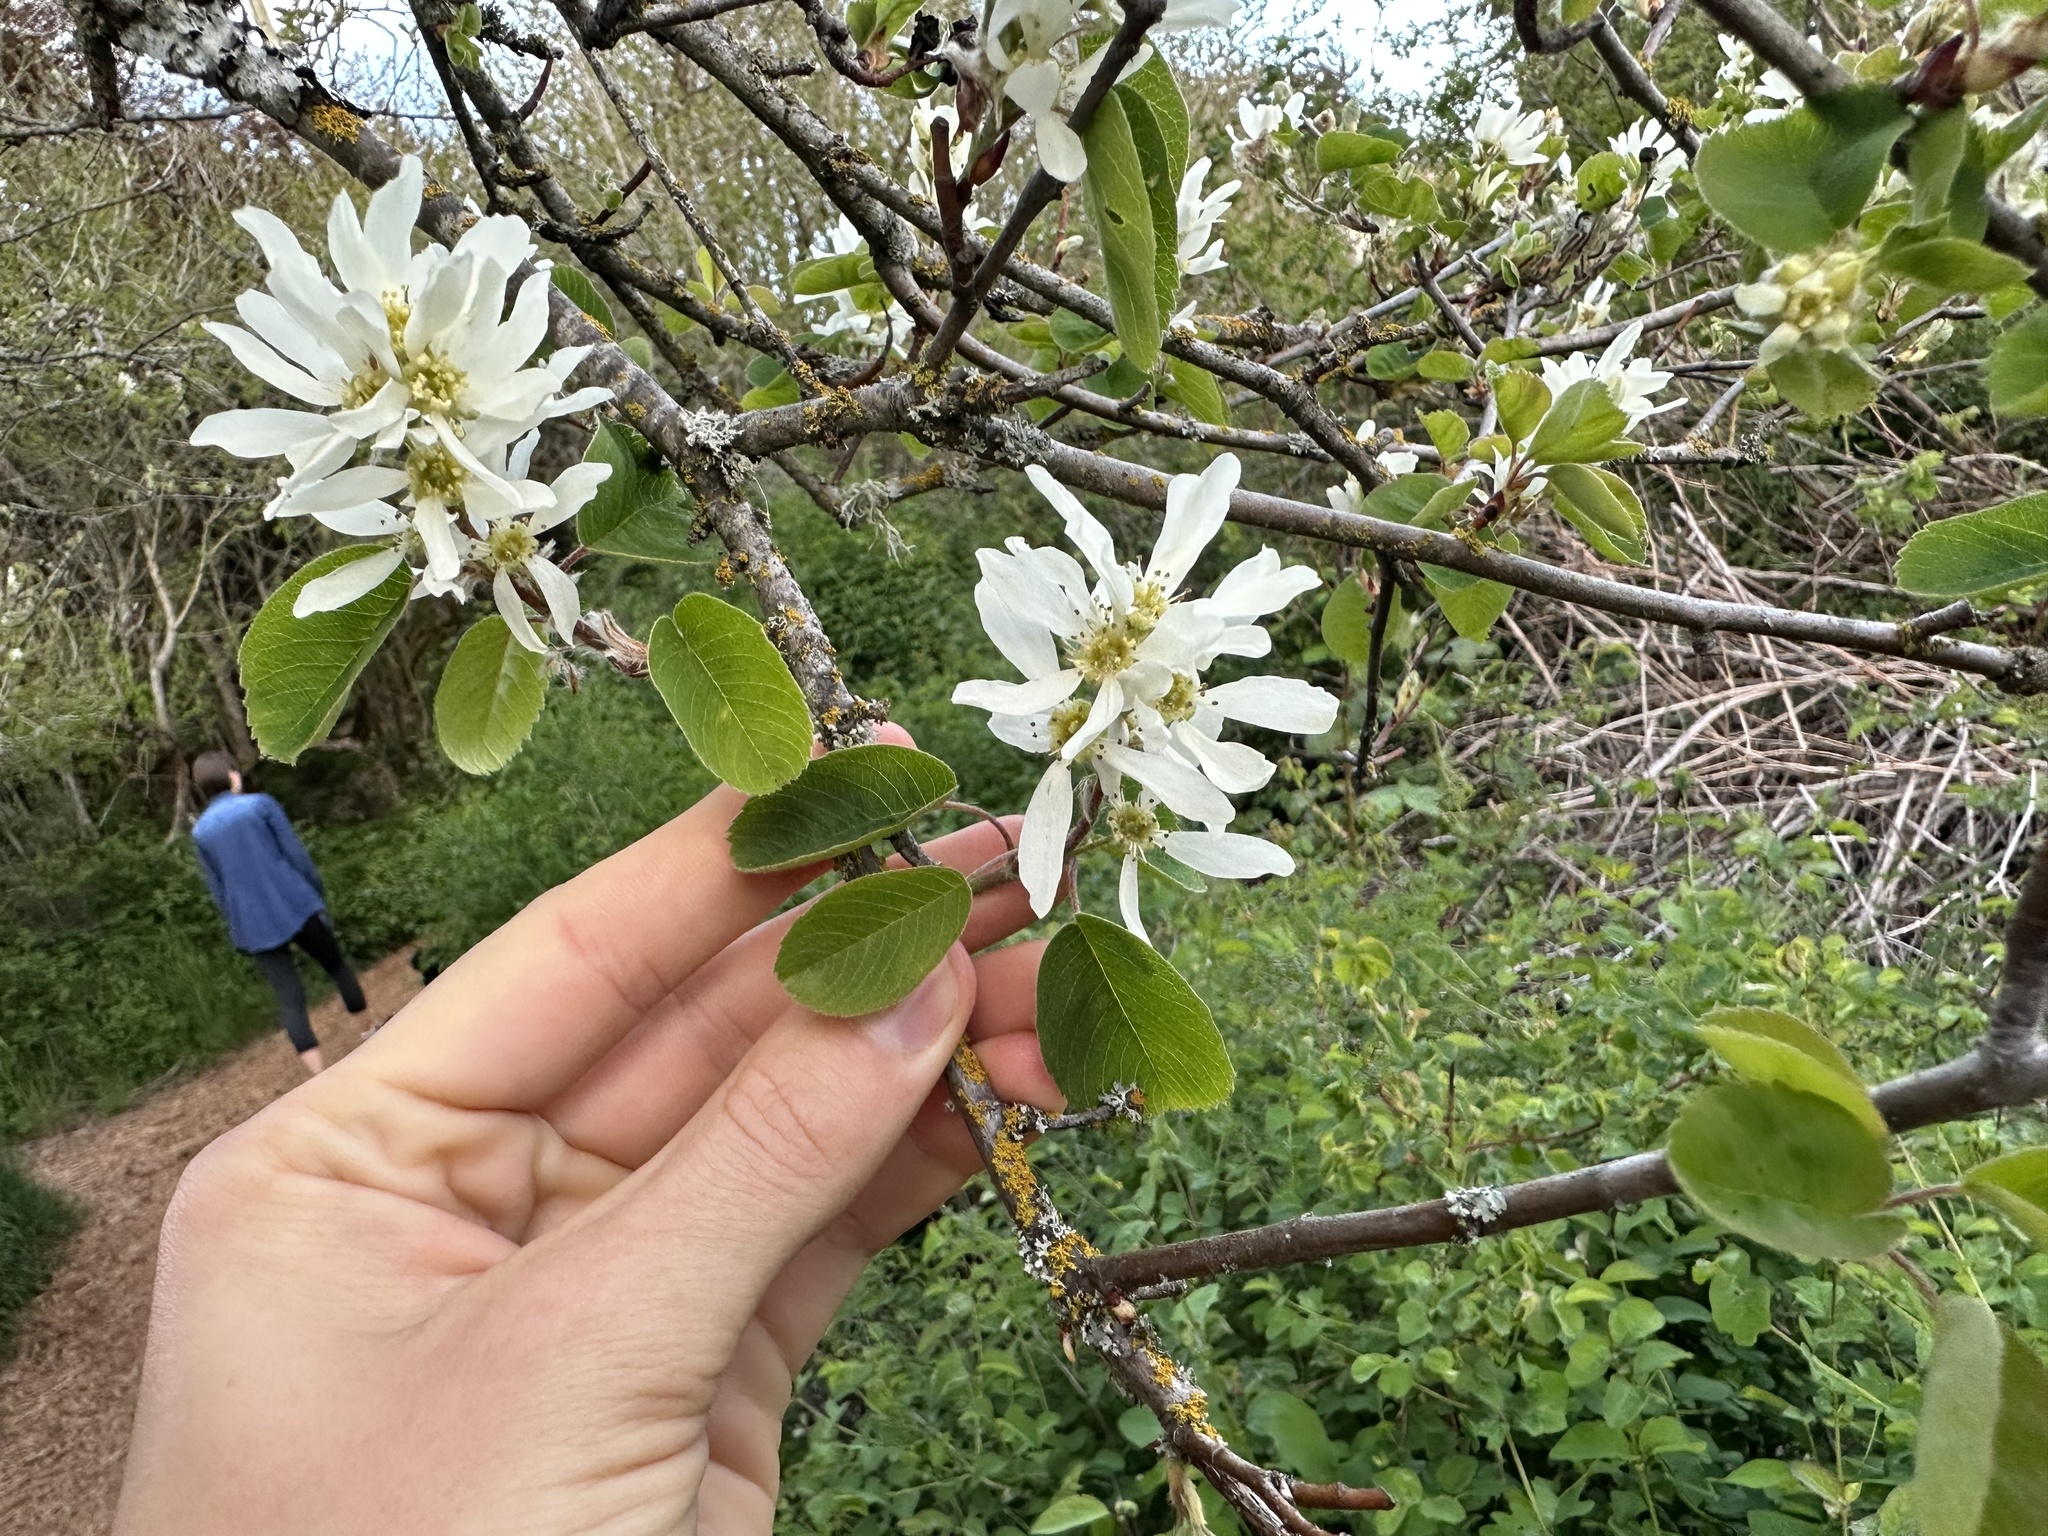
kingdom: Plantae
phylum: Tracheophyta
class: Magnoliopsida
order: Rosales
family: Rosaceae
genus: Amelanchier
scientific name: Amelanchier alnifolia
